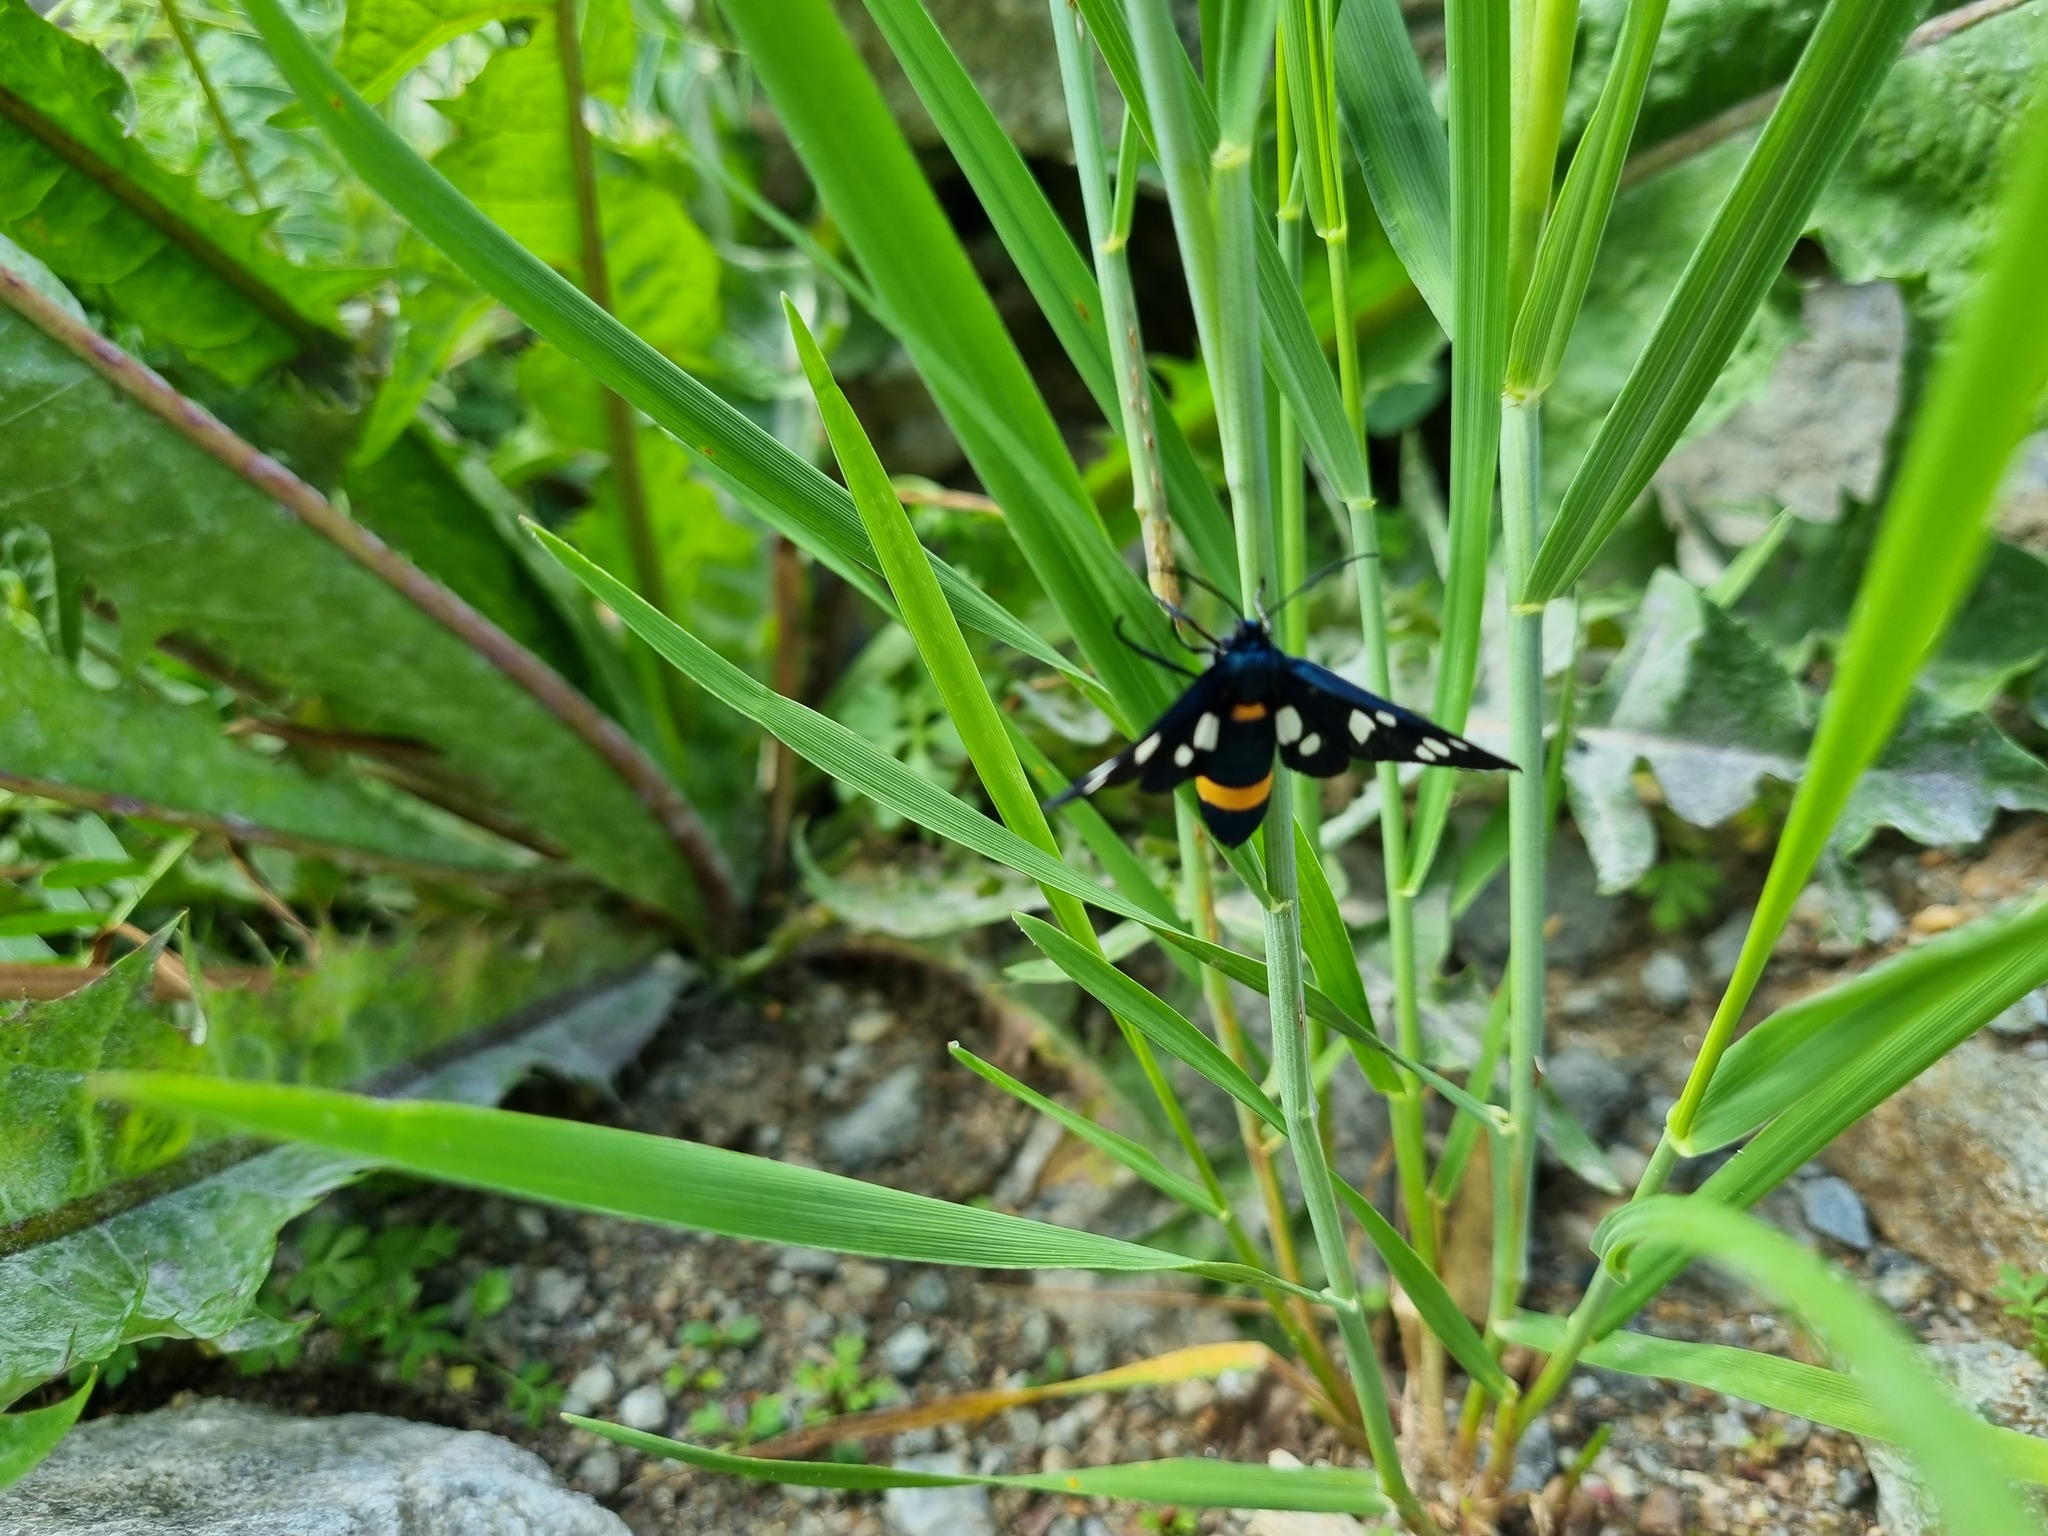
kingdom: Animalia
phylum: Arthropoda
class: Insecta
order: Lepidoptera
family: Erebidae
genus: Amata
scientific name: Amata nigricornis
